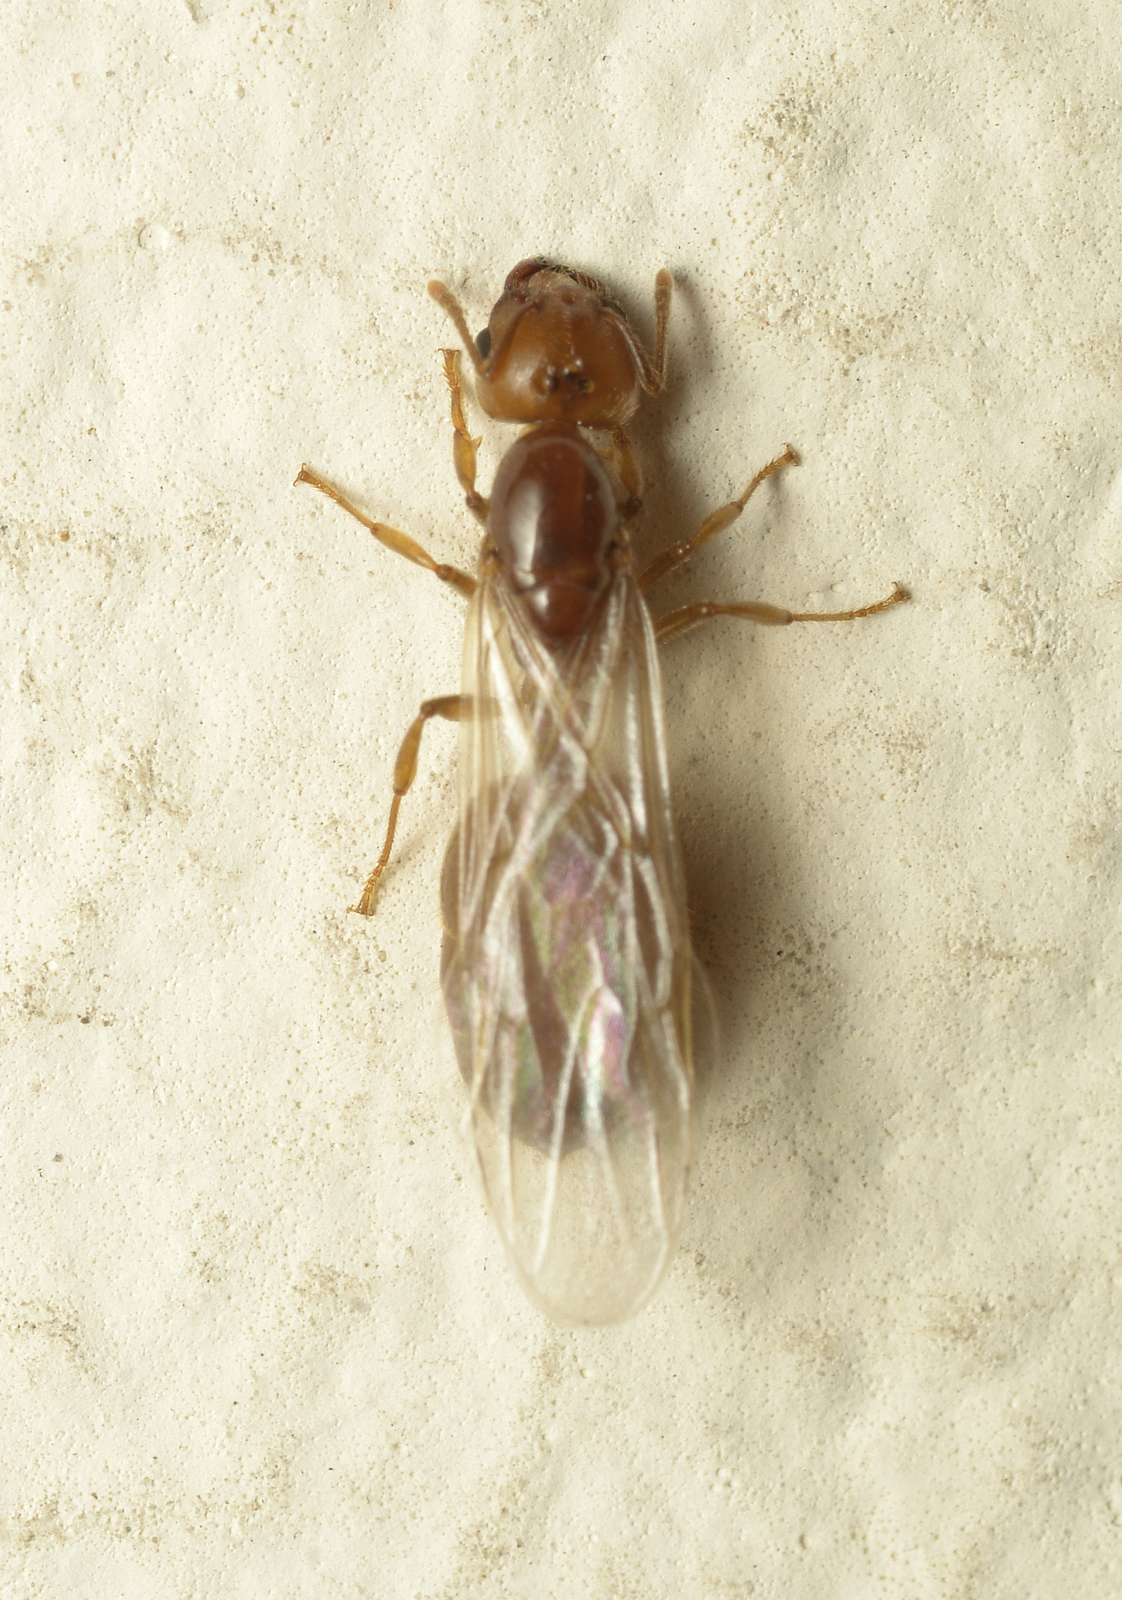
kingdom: Animalia
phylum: Arthropoda
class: Insecta
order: Hymenoptera
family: Formicidae
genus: Crematogaster
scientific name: Crematogaster biroi
